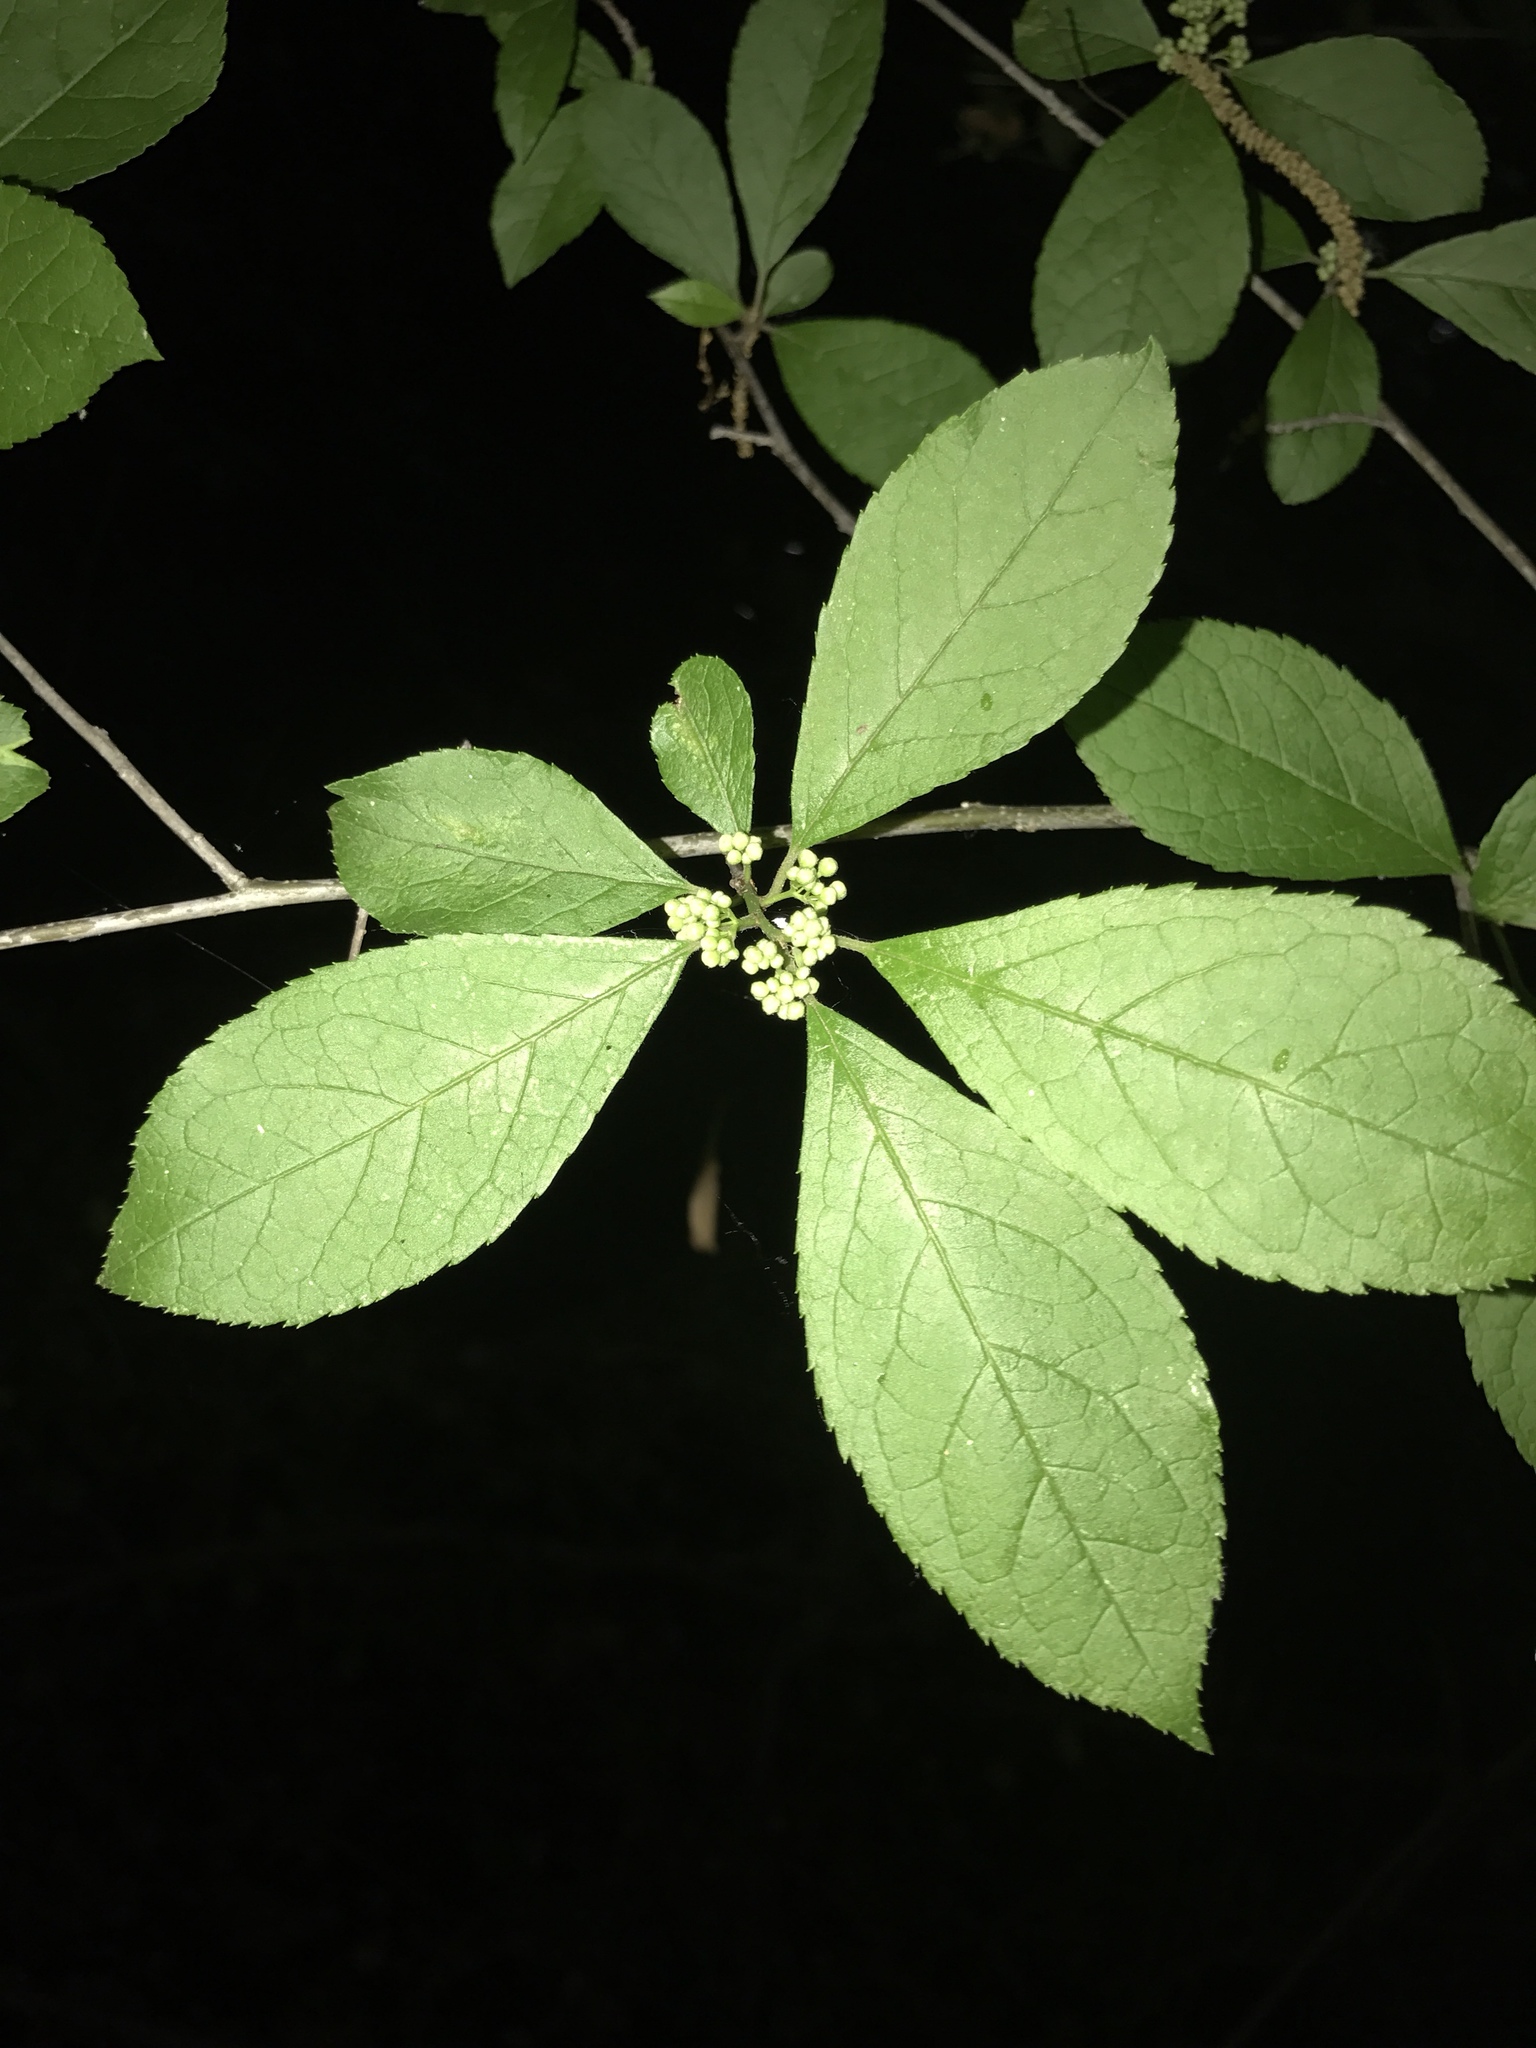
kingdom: Plantae
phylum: Tracheophyta
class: Magnoliopsida
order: Aquifoliales
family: Aquifoliaceae
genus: Ilex
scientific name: Ilex verticillata
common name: Virginia winterberry
